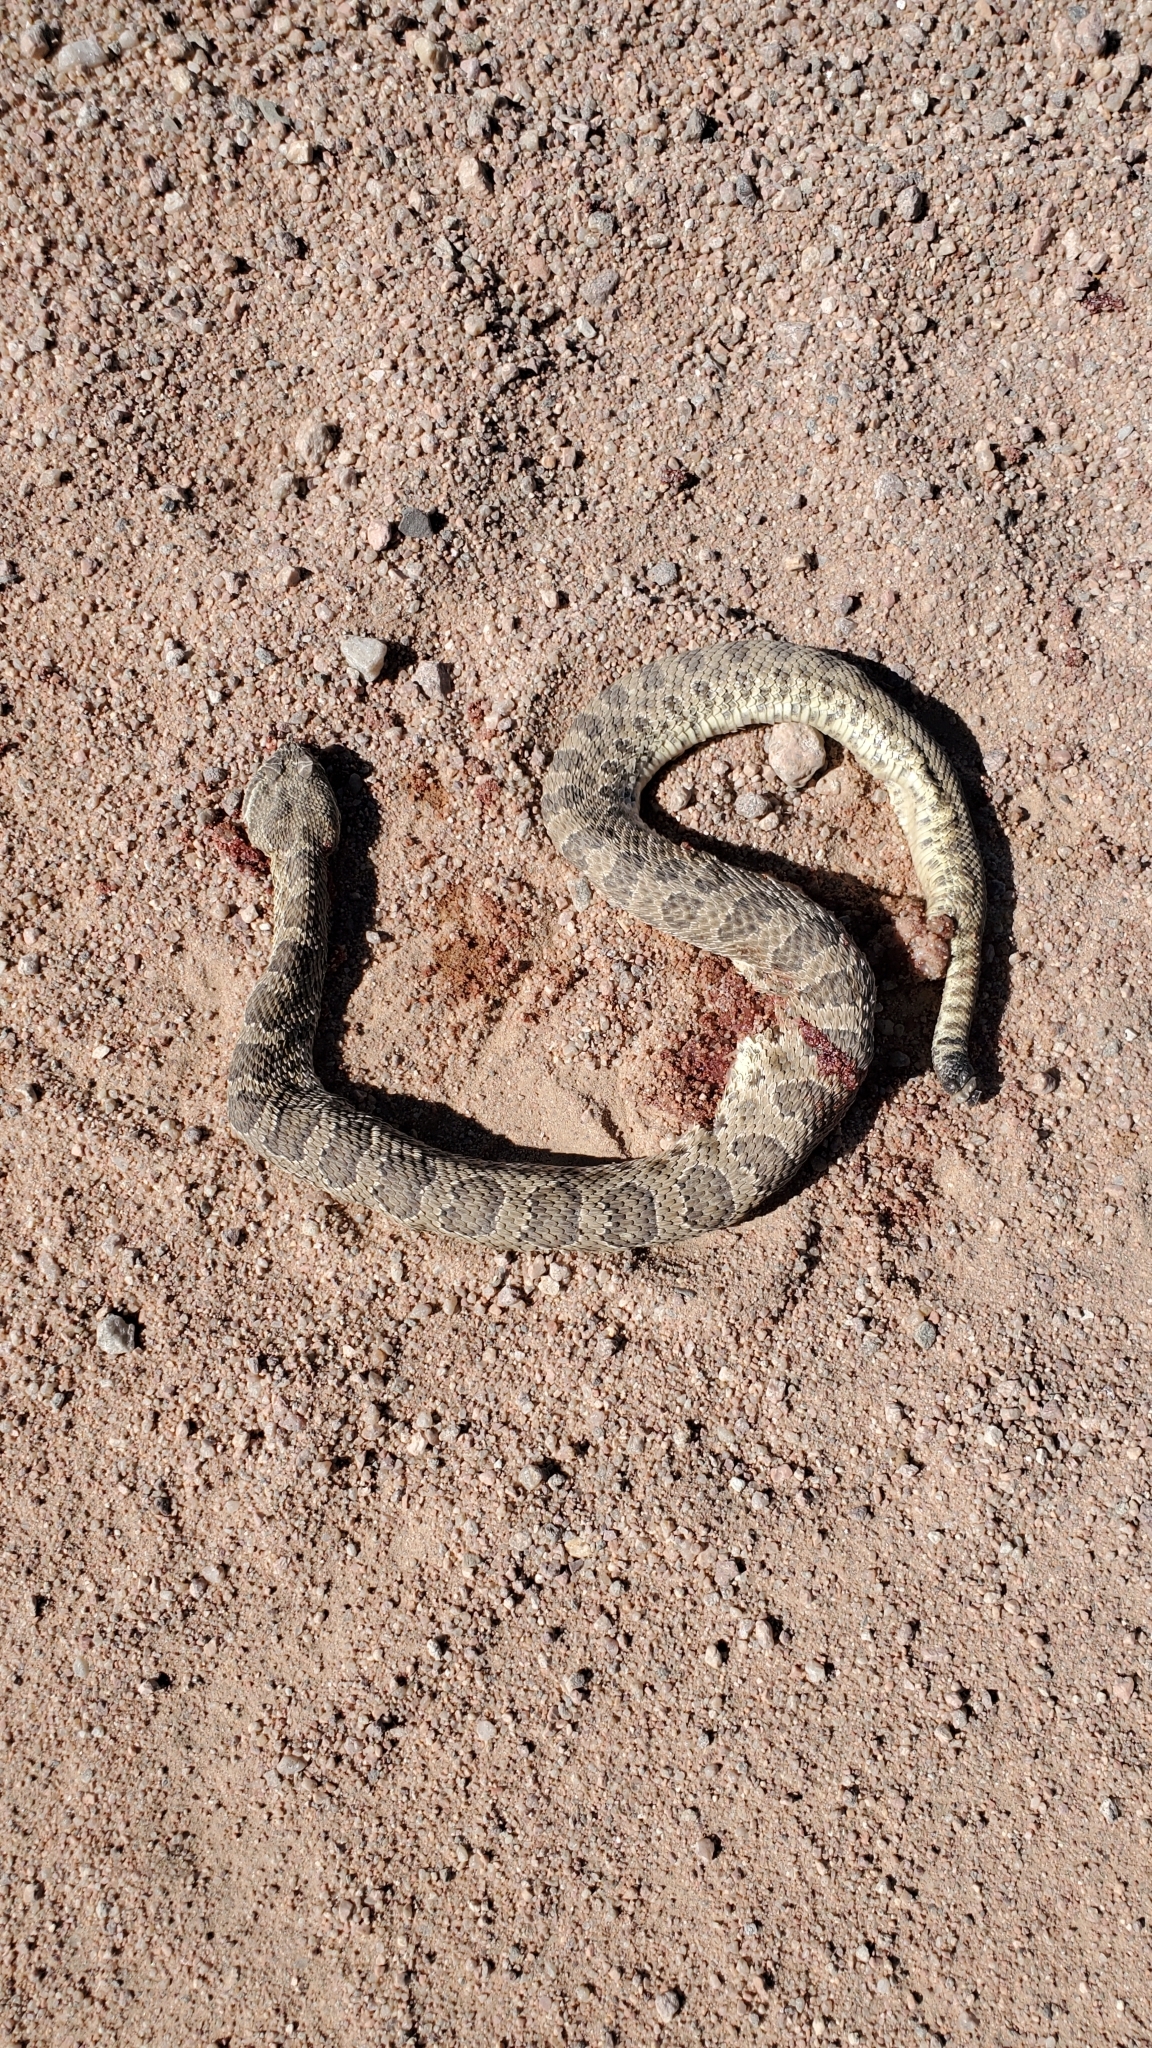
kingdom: Animalia
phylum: Chordata
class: Squamata
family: Viperidae
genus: Crotalus
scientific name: Crotalus viridis
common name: Prairie rattlesnake
